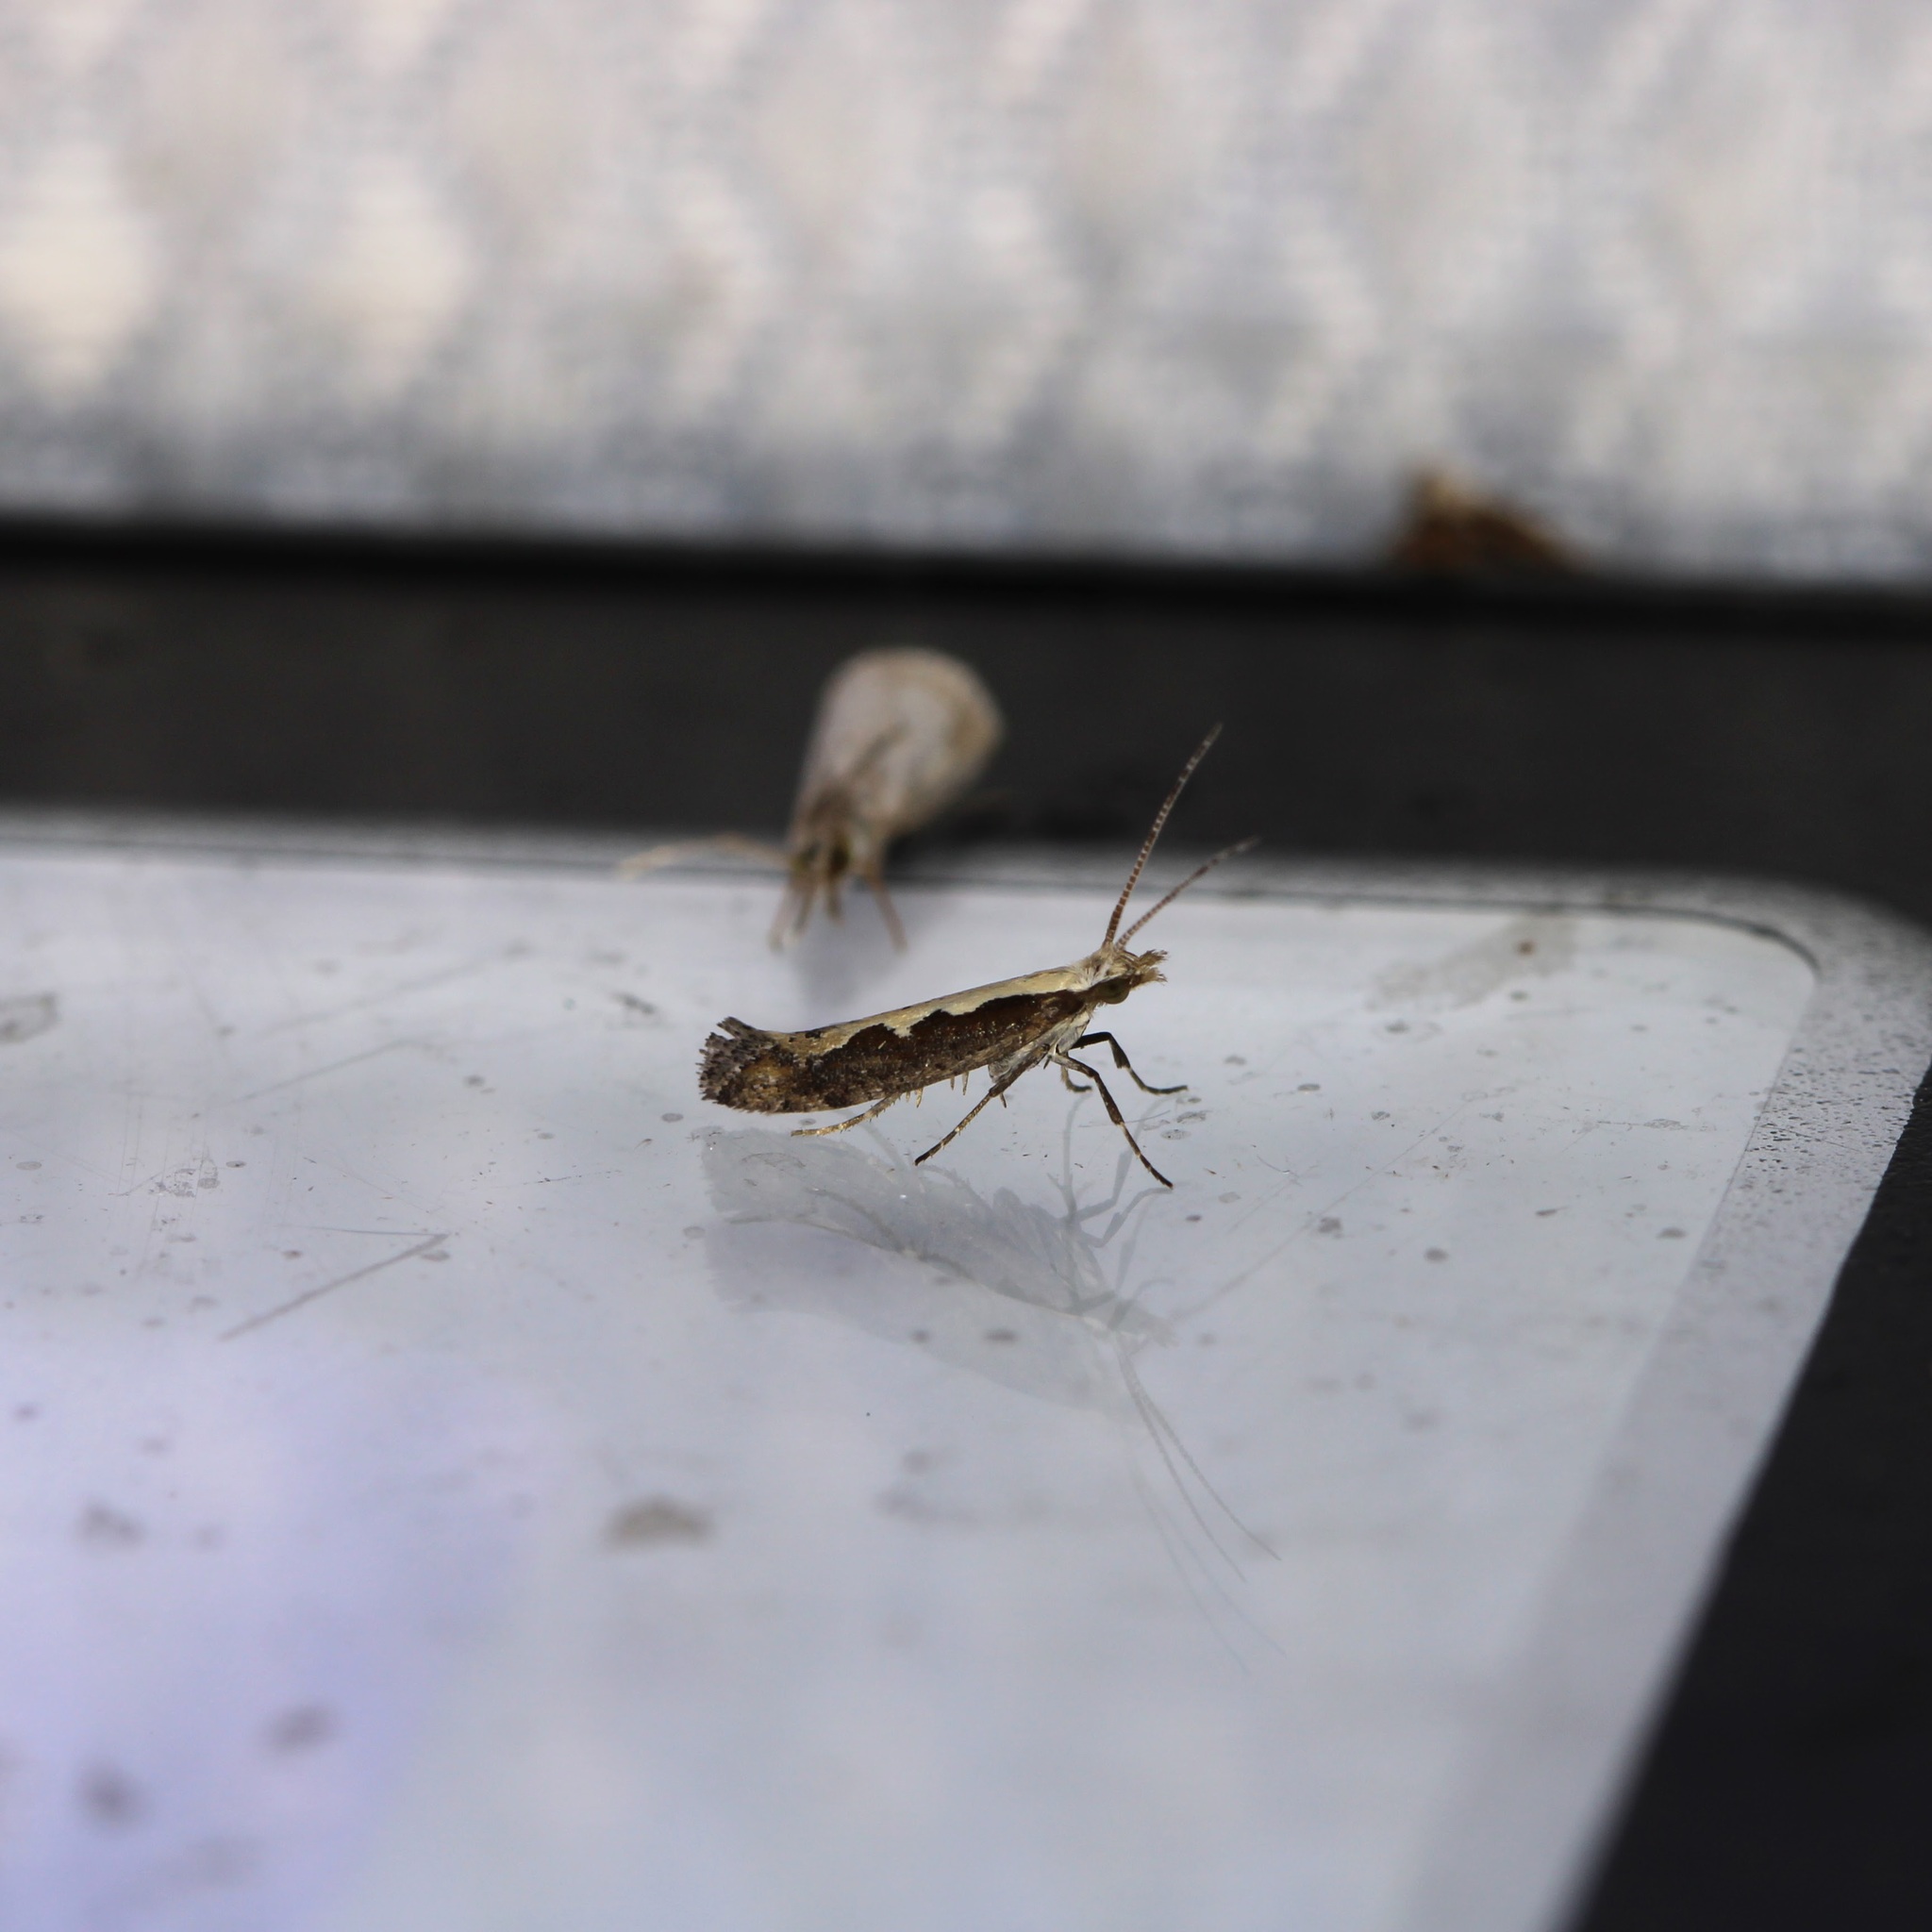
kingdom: Animalia
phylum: Arthropoda
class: Insecta
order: Lepidoptera
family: Plutellidae
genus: Plutella
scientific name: Plutella xylostella
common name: Diamond-back moth
